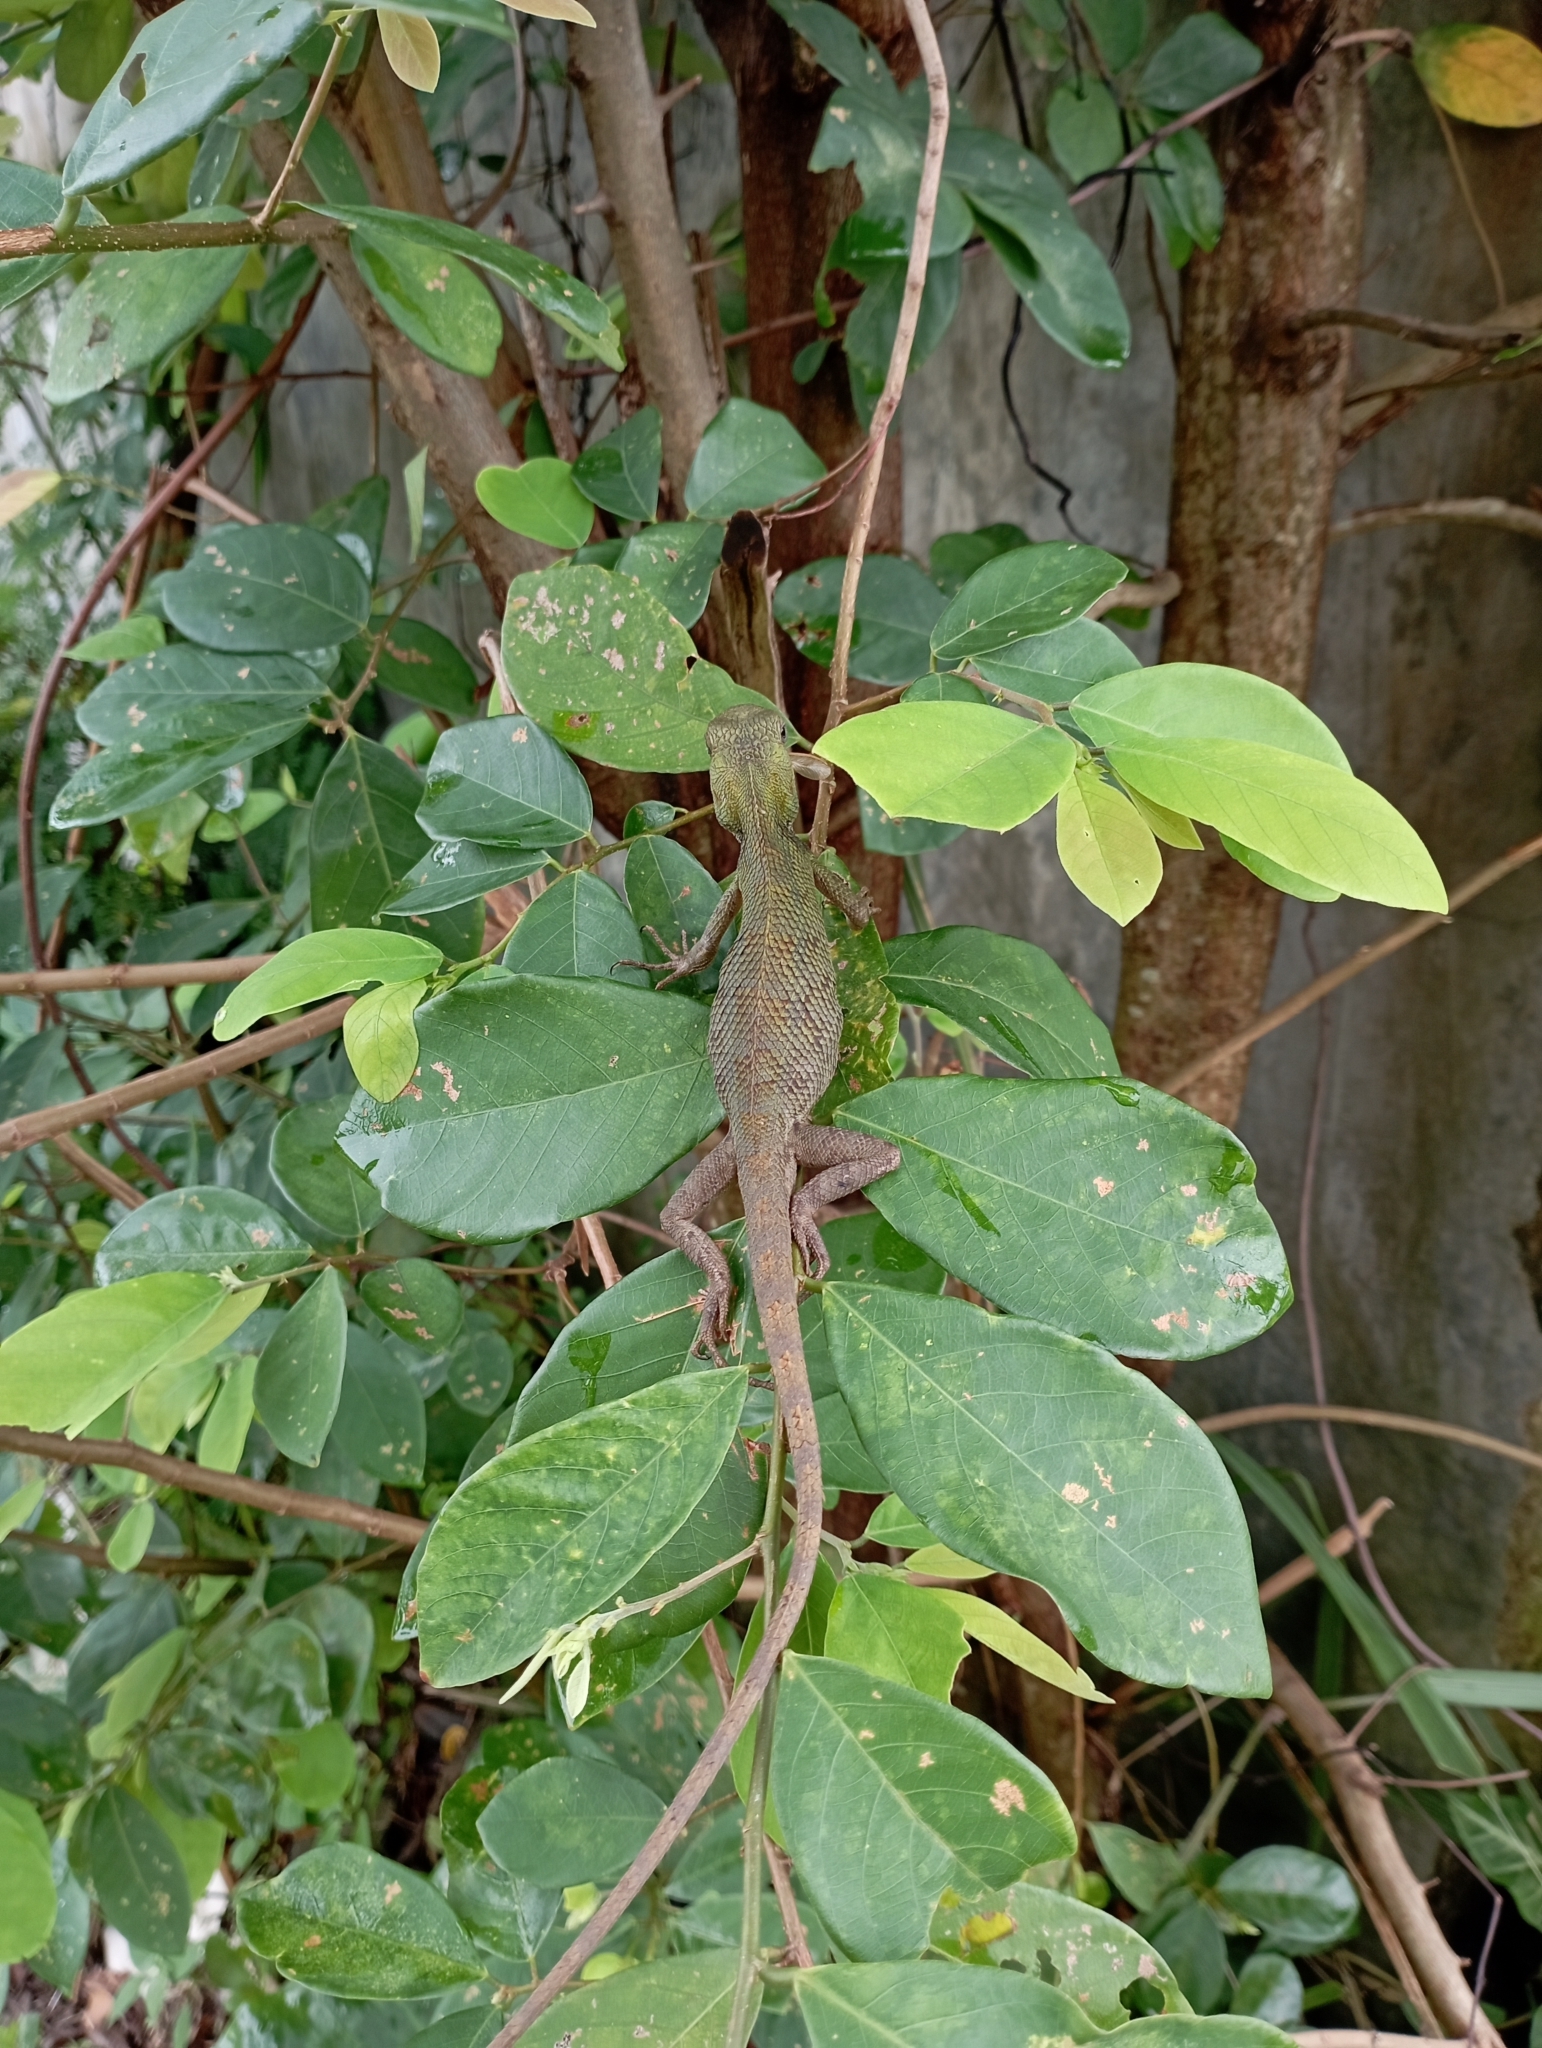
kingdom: Animalia
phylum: Chordata
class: Squamata
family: Agamidae
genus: Calotes
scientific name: Calotes versicolor
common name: Oriental garden lizard
